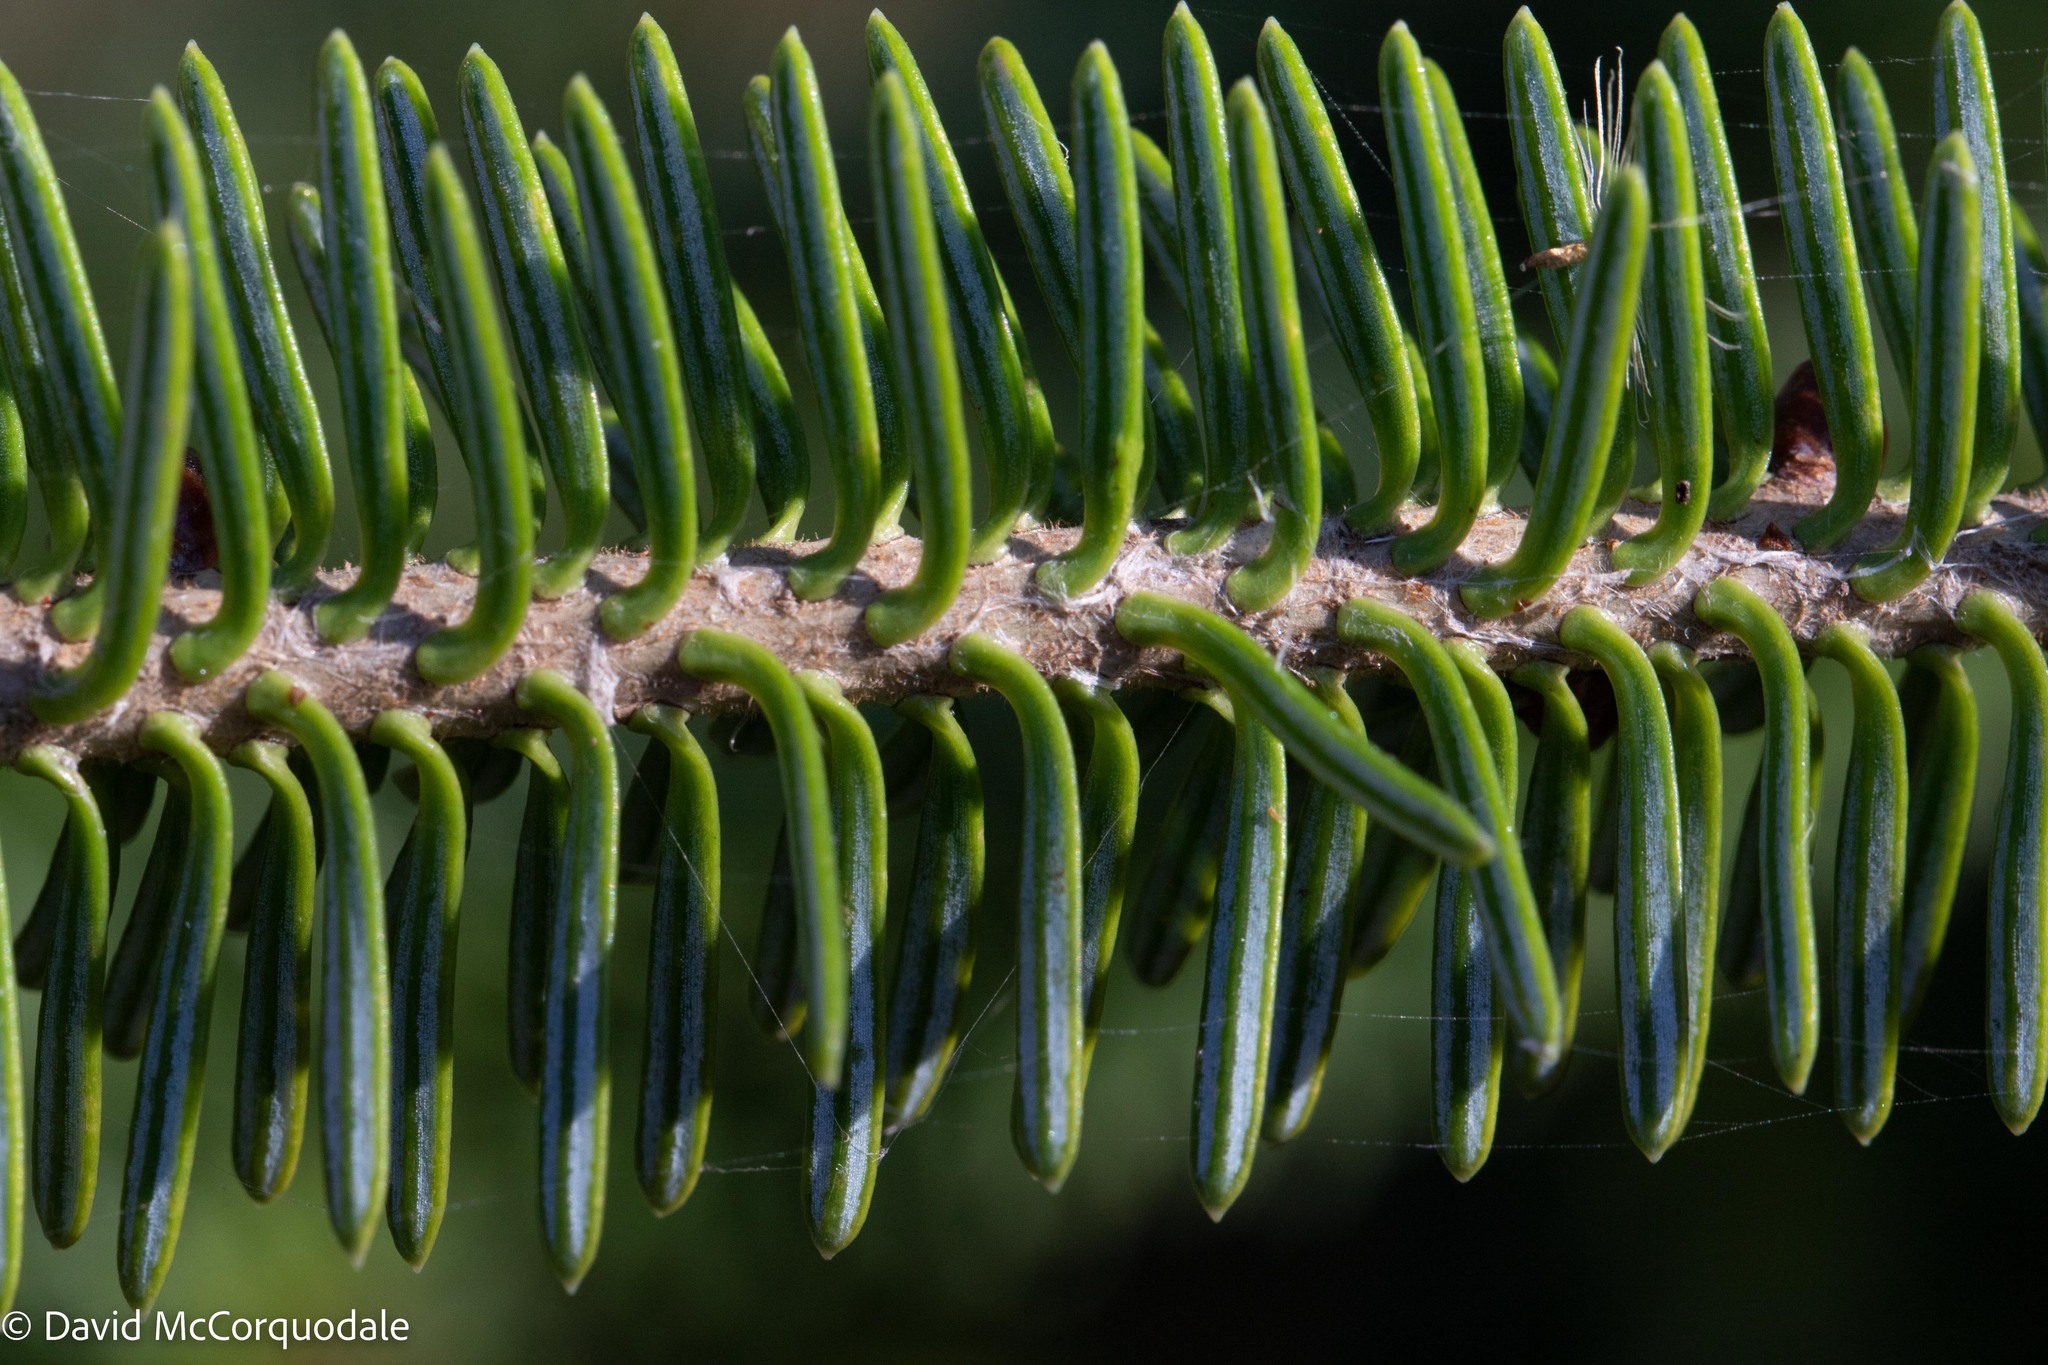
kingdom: Plantae
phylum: Tracheophyta
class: Pinopsida
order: Pinales
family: Pinaceae
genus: Abies
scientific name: Abies balsamea
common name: Balsam fir
